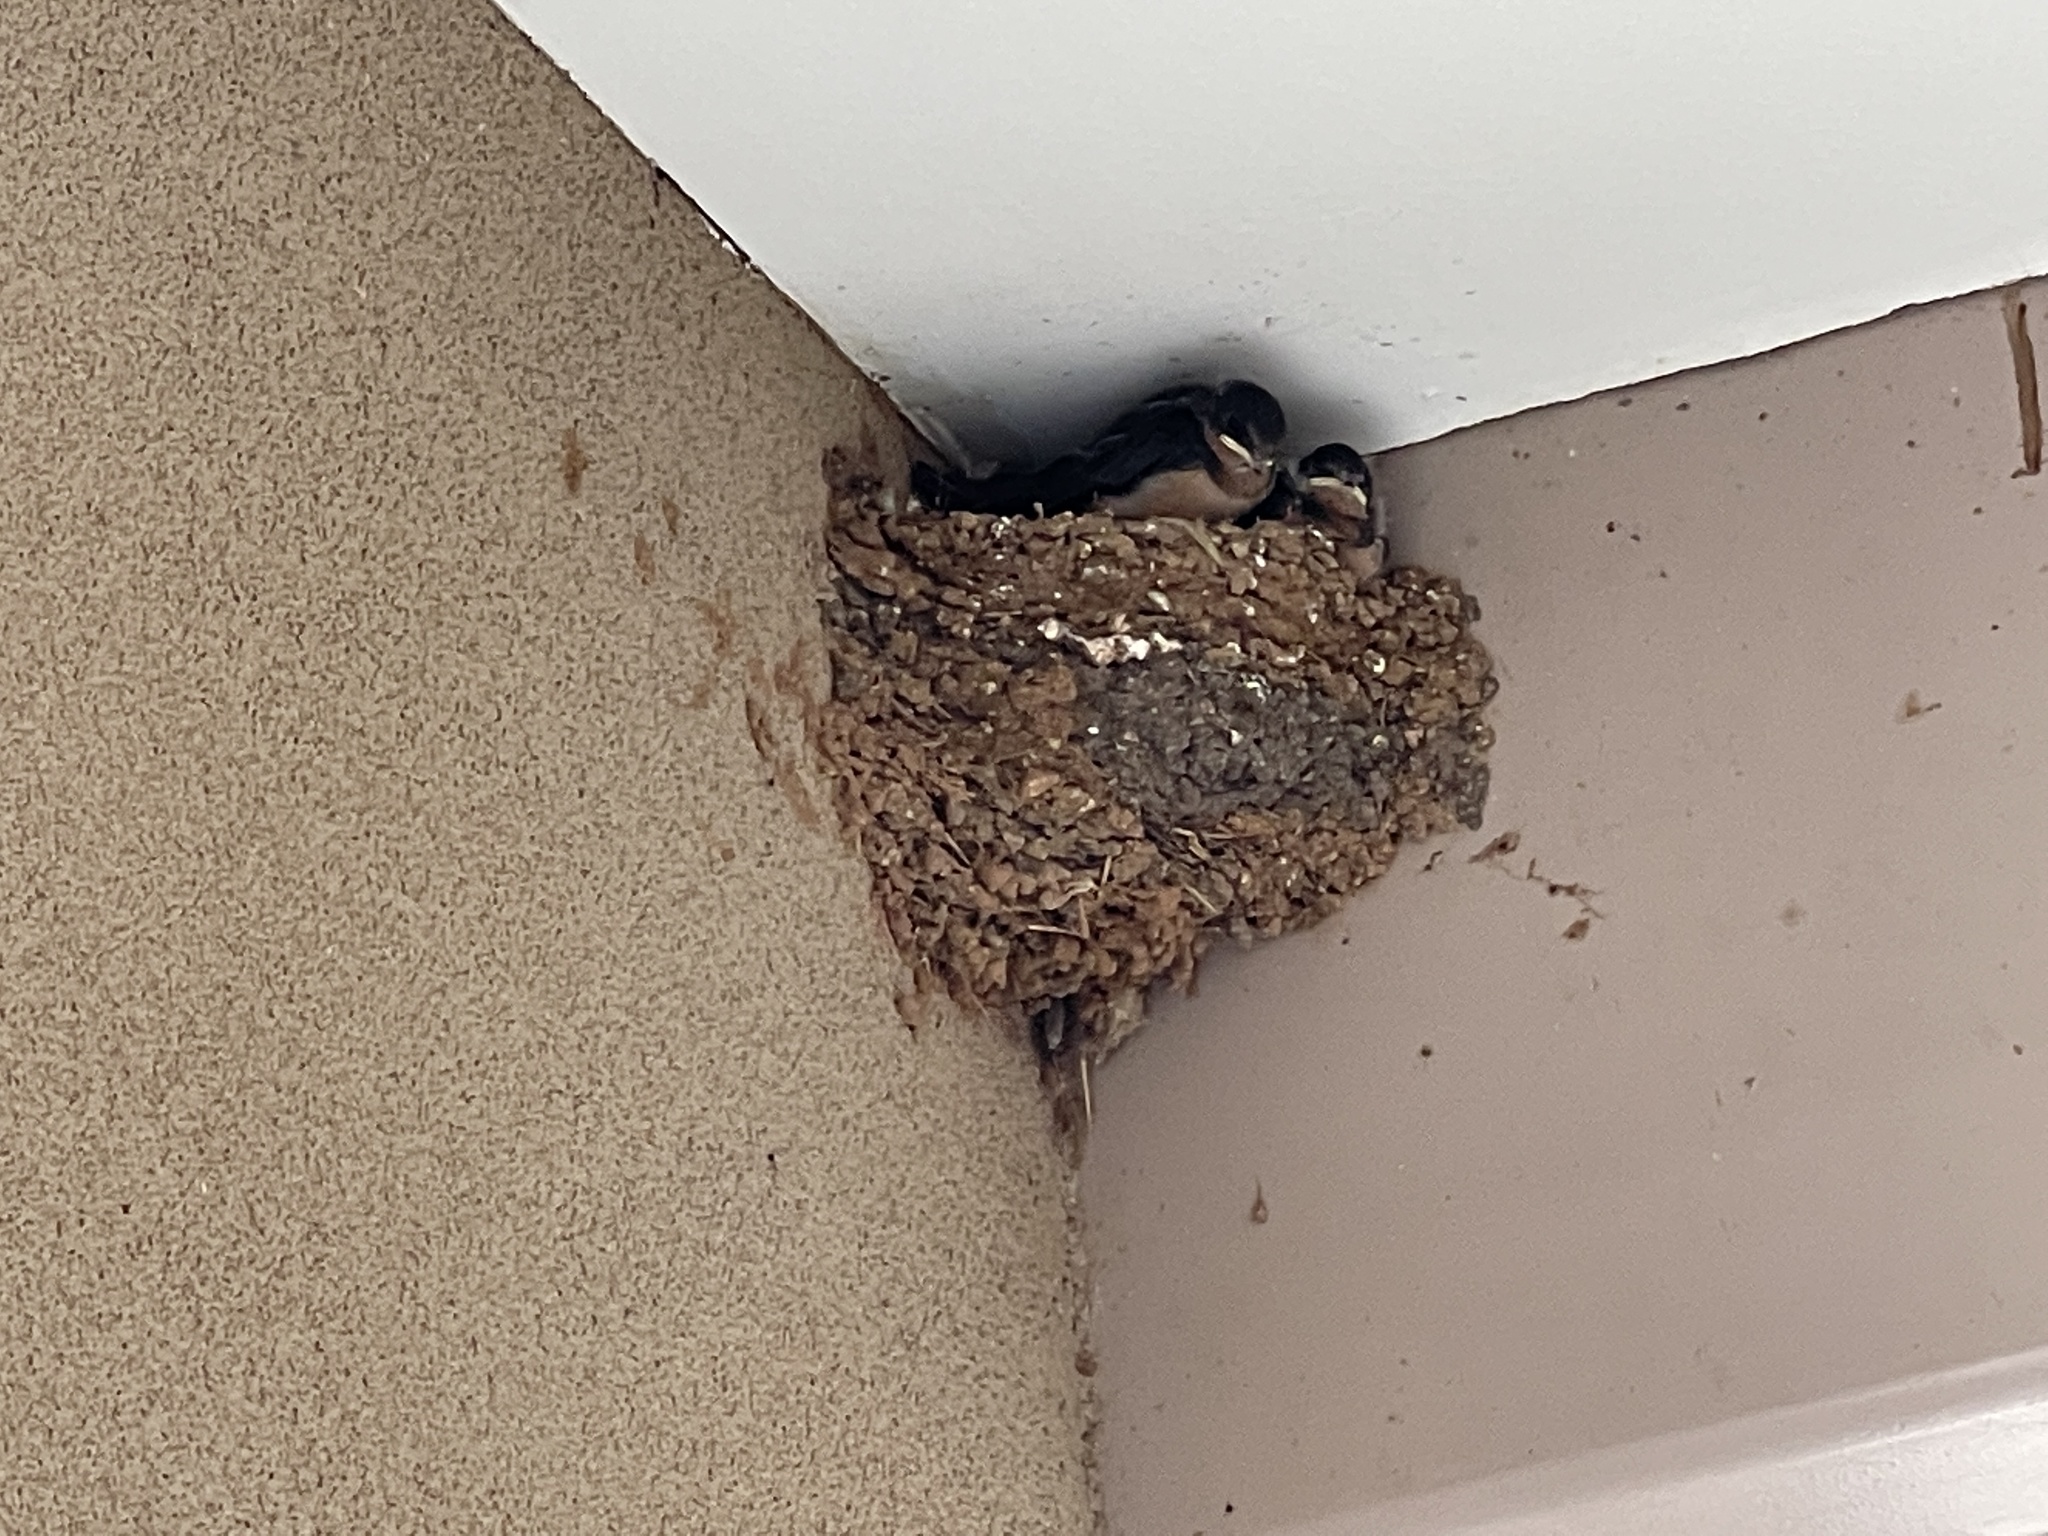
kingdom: Animalia
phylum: Chordata
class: Aves
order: Passeriformes
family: Hirundinidae
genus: Hirundo
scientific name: Hirundo rustica
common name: Barn swallow
